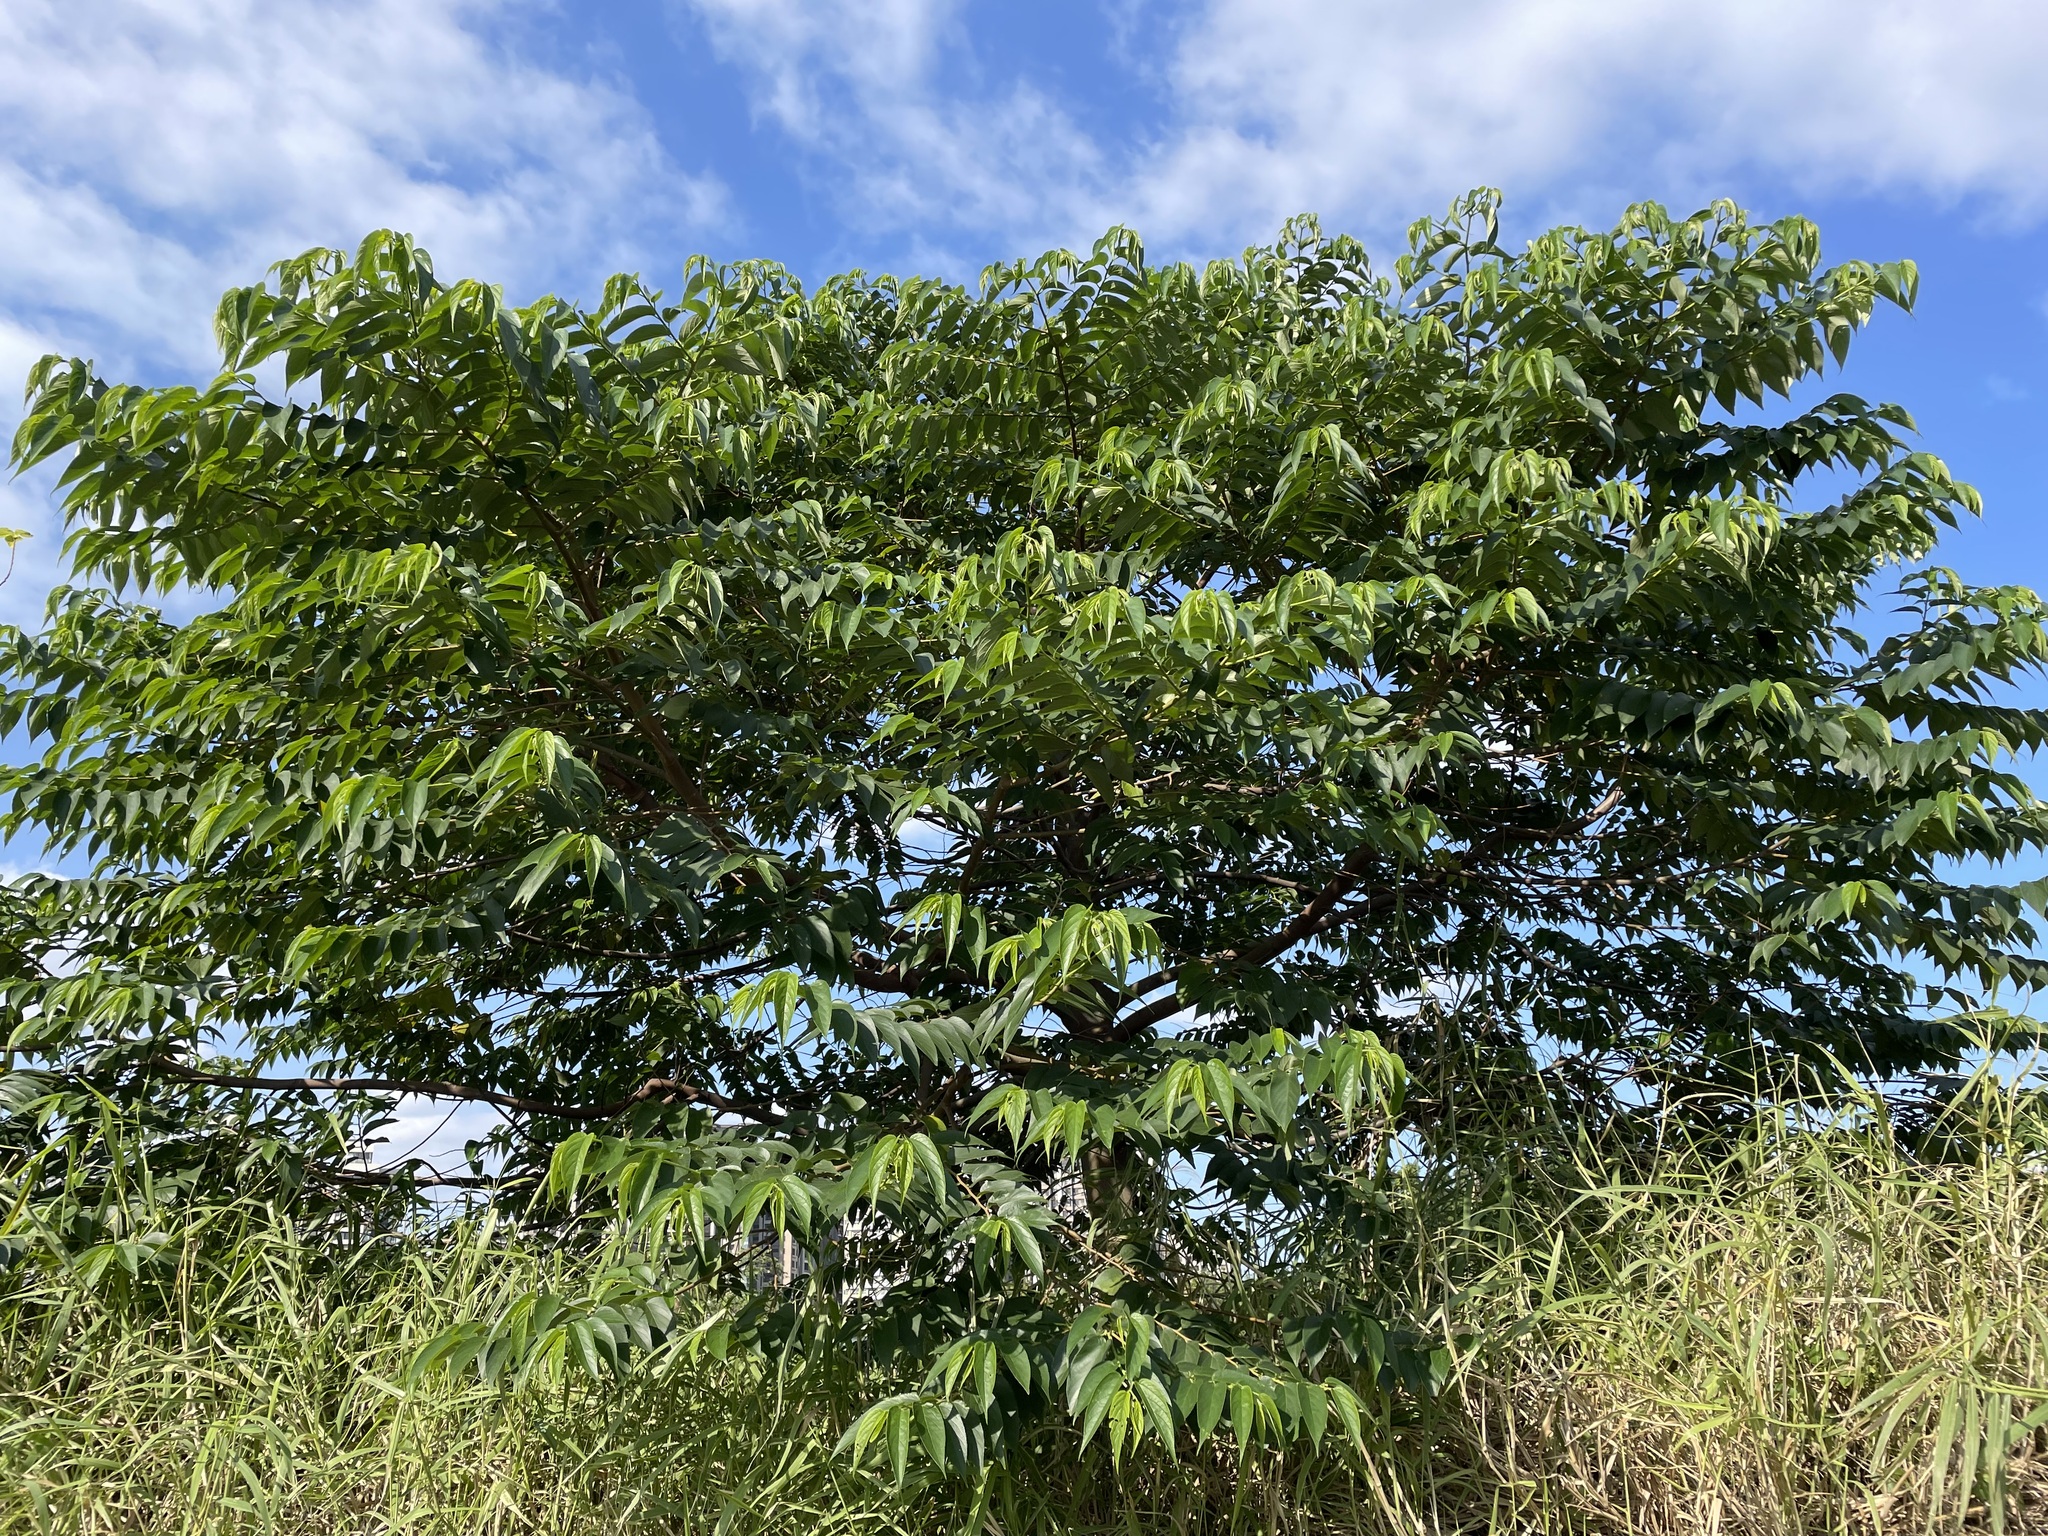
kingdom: Plantae
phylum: Tracheophyta
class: Magnoliopsida
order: Rosales
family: Cannabaceae
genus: Trema
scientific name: Trema orientale
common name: Indian charcoal tree
